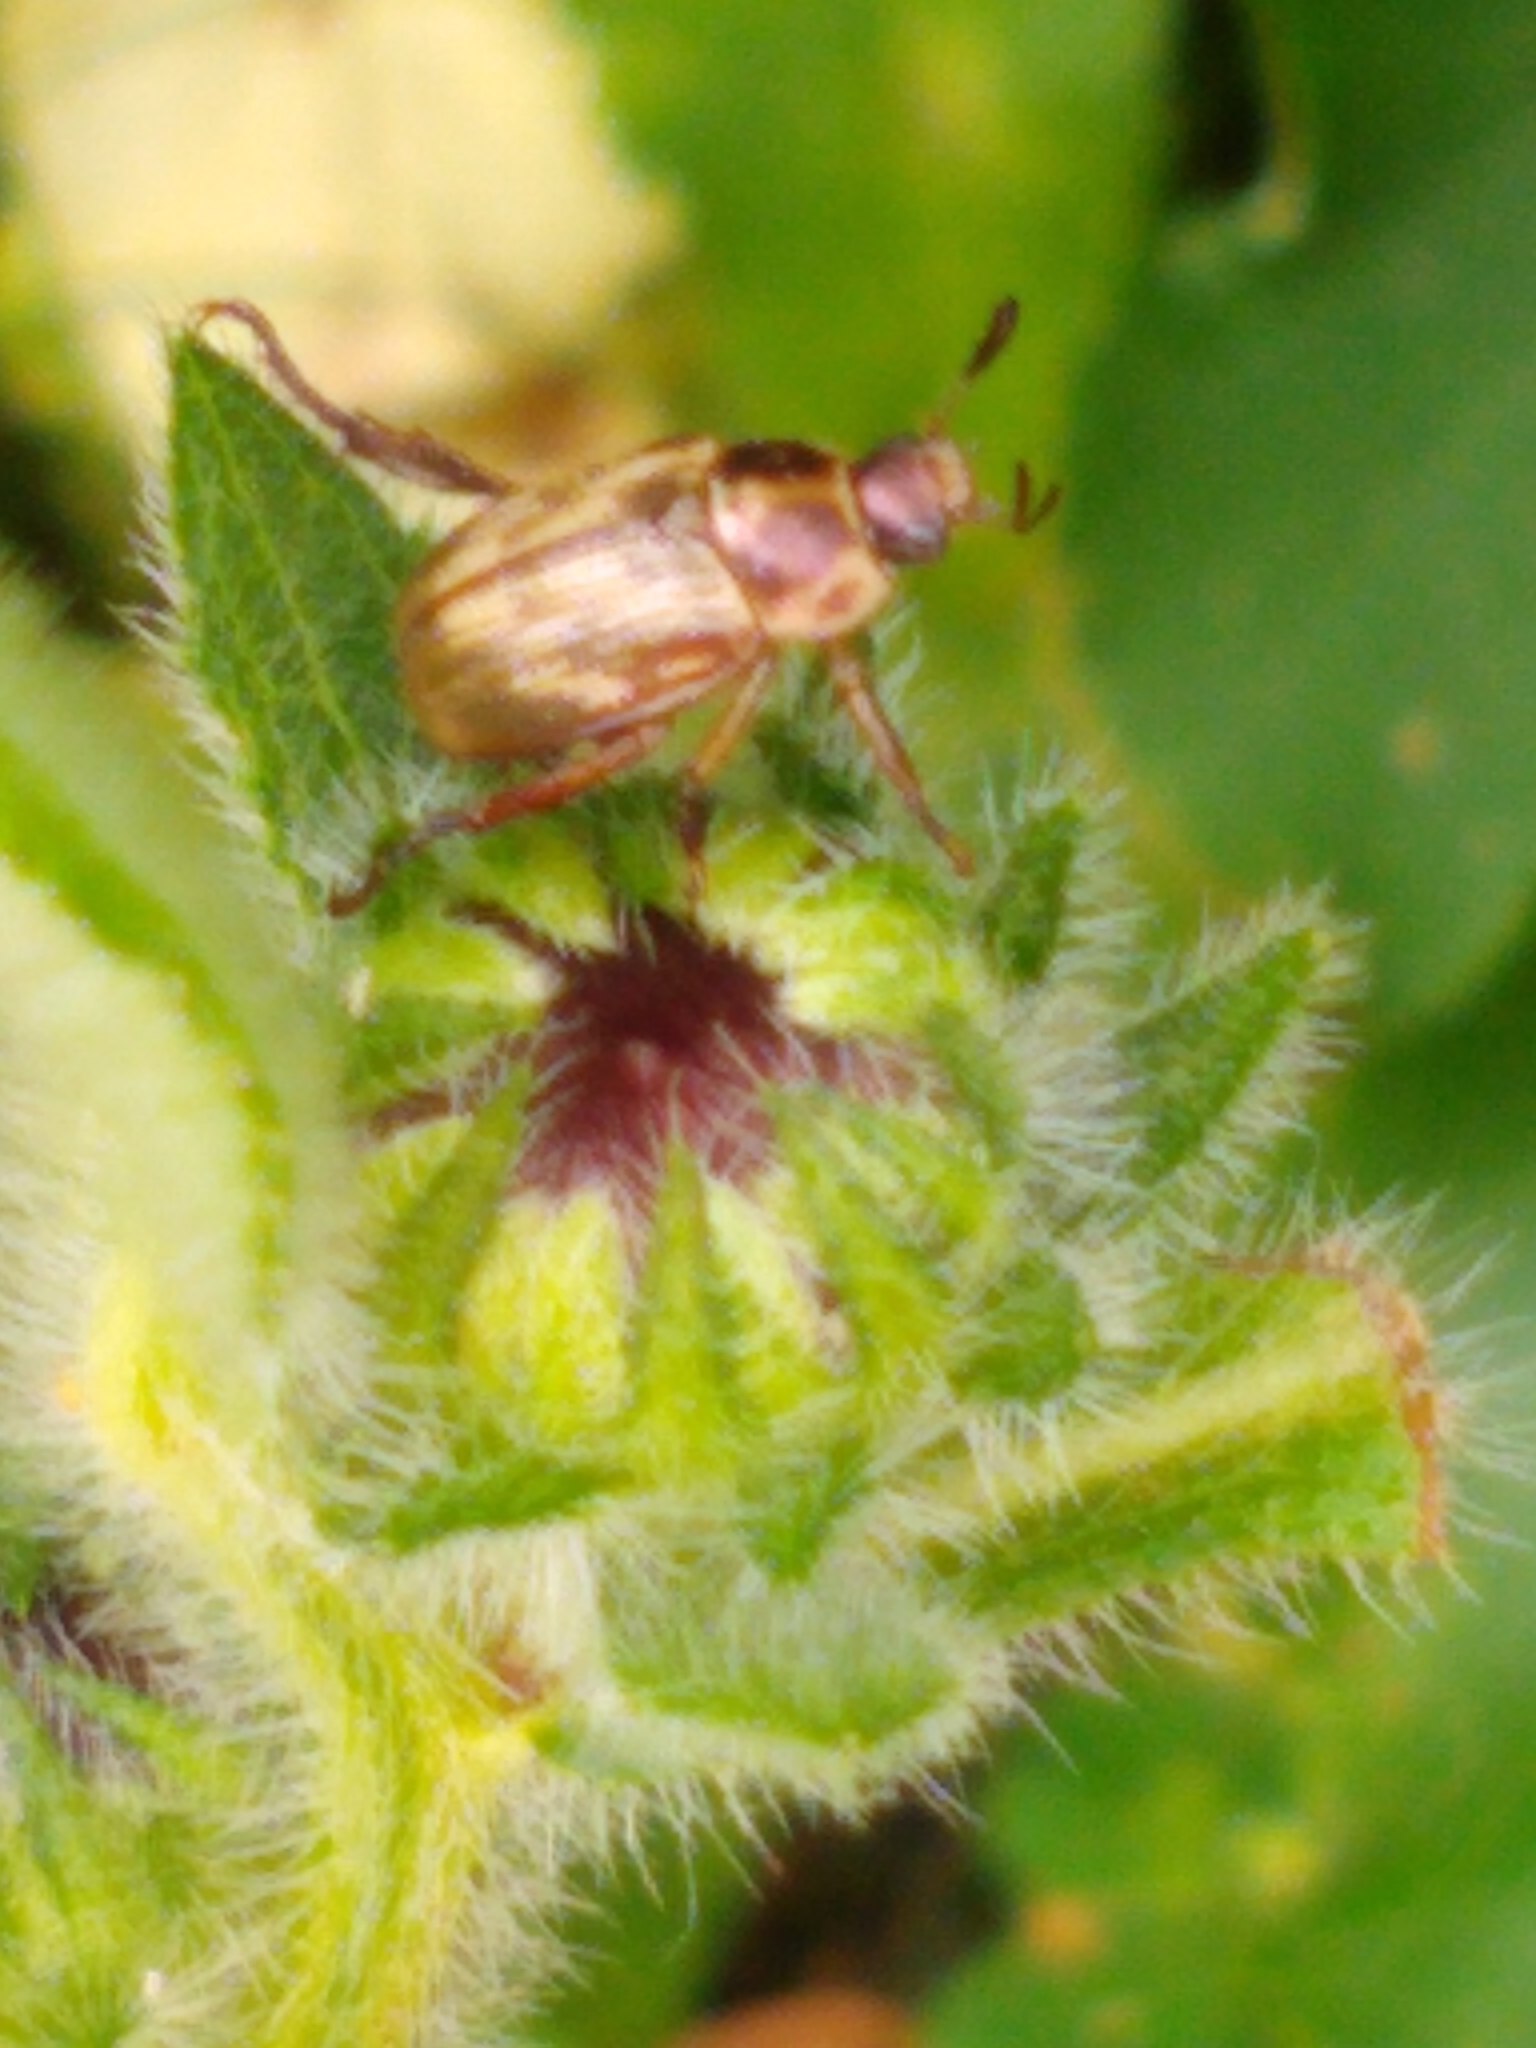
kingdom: Animalia
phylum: Arthropoda
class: Insecta
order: Coleoptera
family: Scarabaeidae
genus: Exomala
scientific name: Exomala orientalis
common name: Oriental beetle
